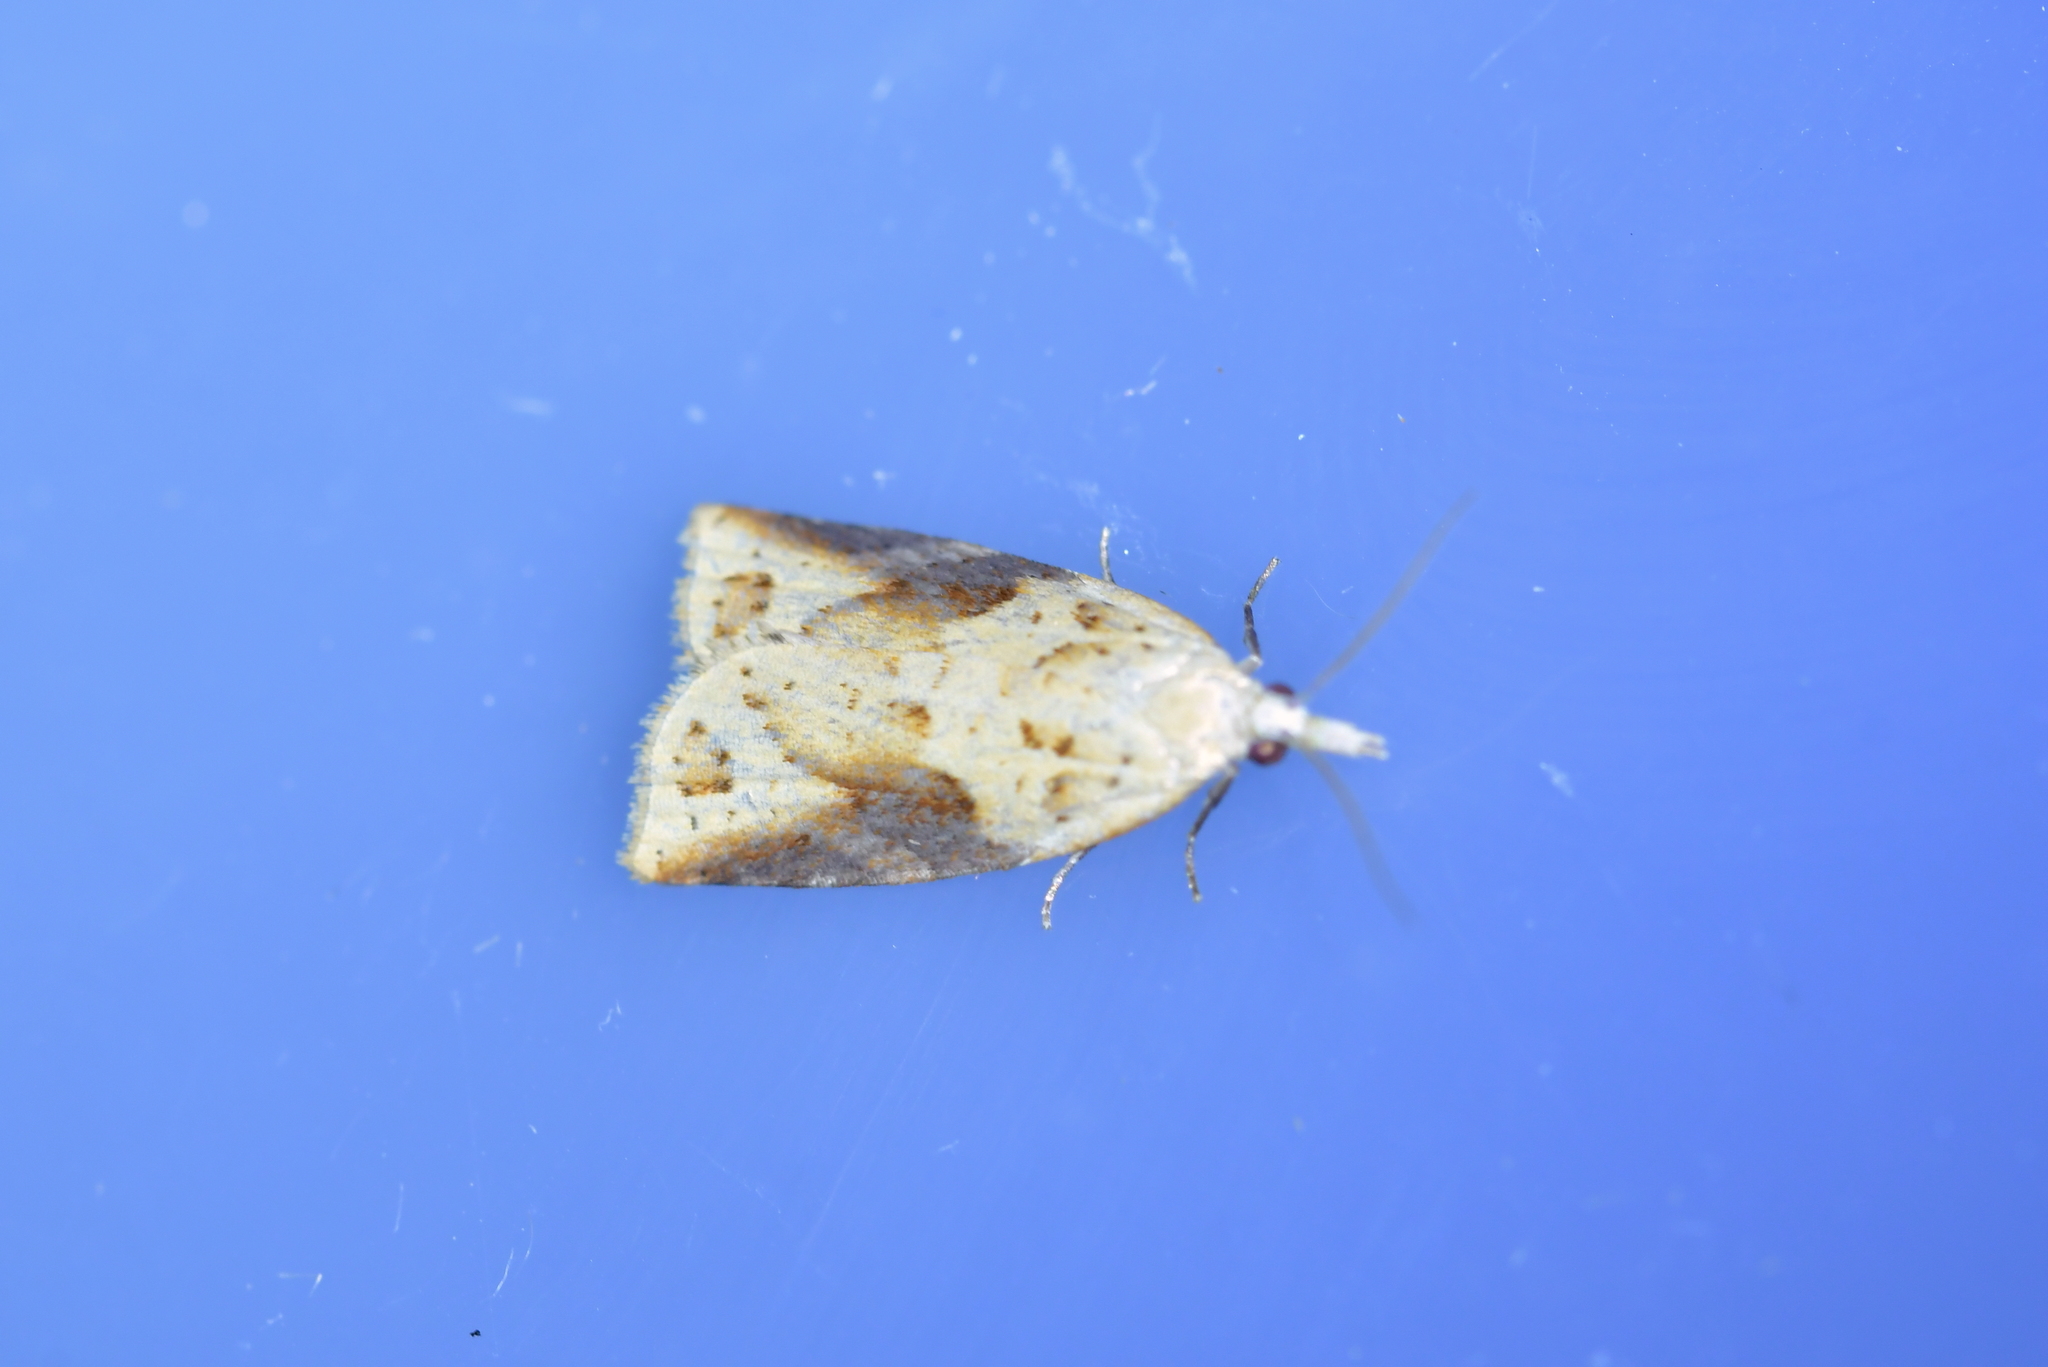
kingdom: Animalia
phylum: Arthropoda
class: Insecta
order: Lepidoptera
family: Tortricidae
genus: Apoctena
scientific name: Apoctena conditana
